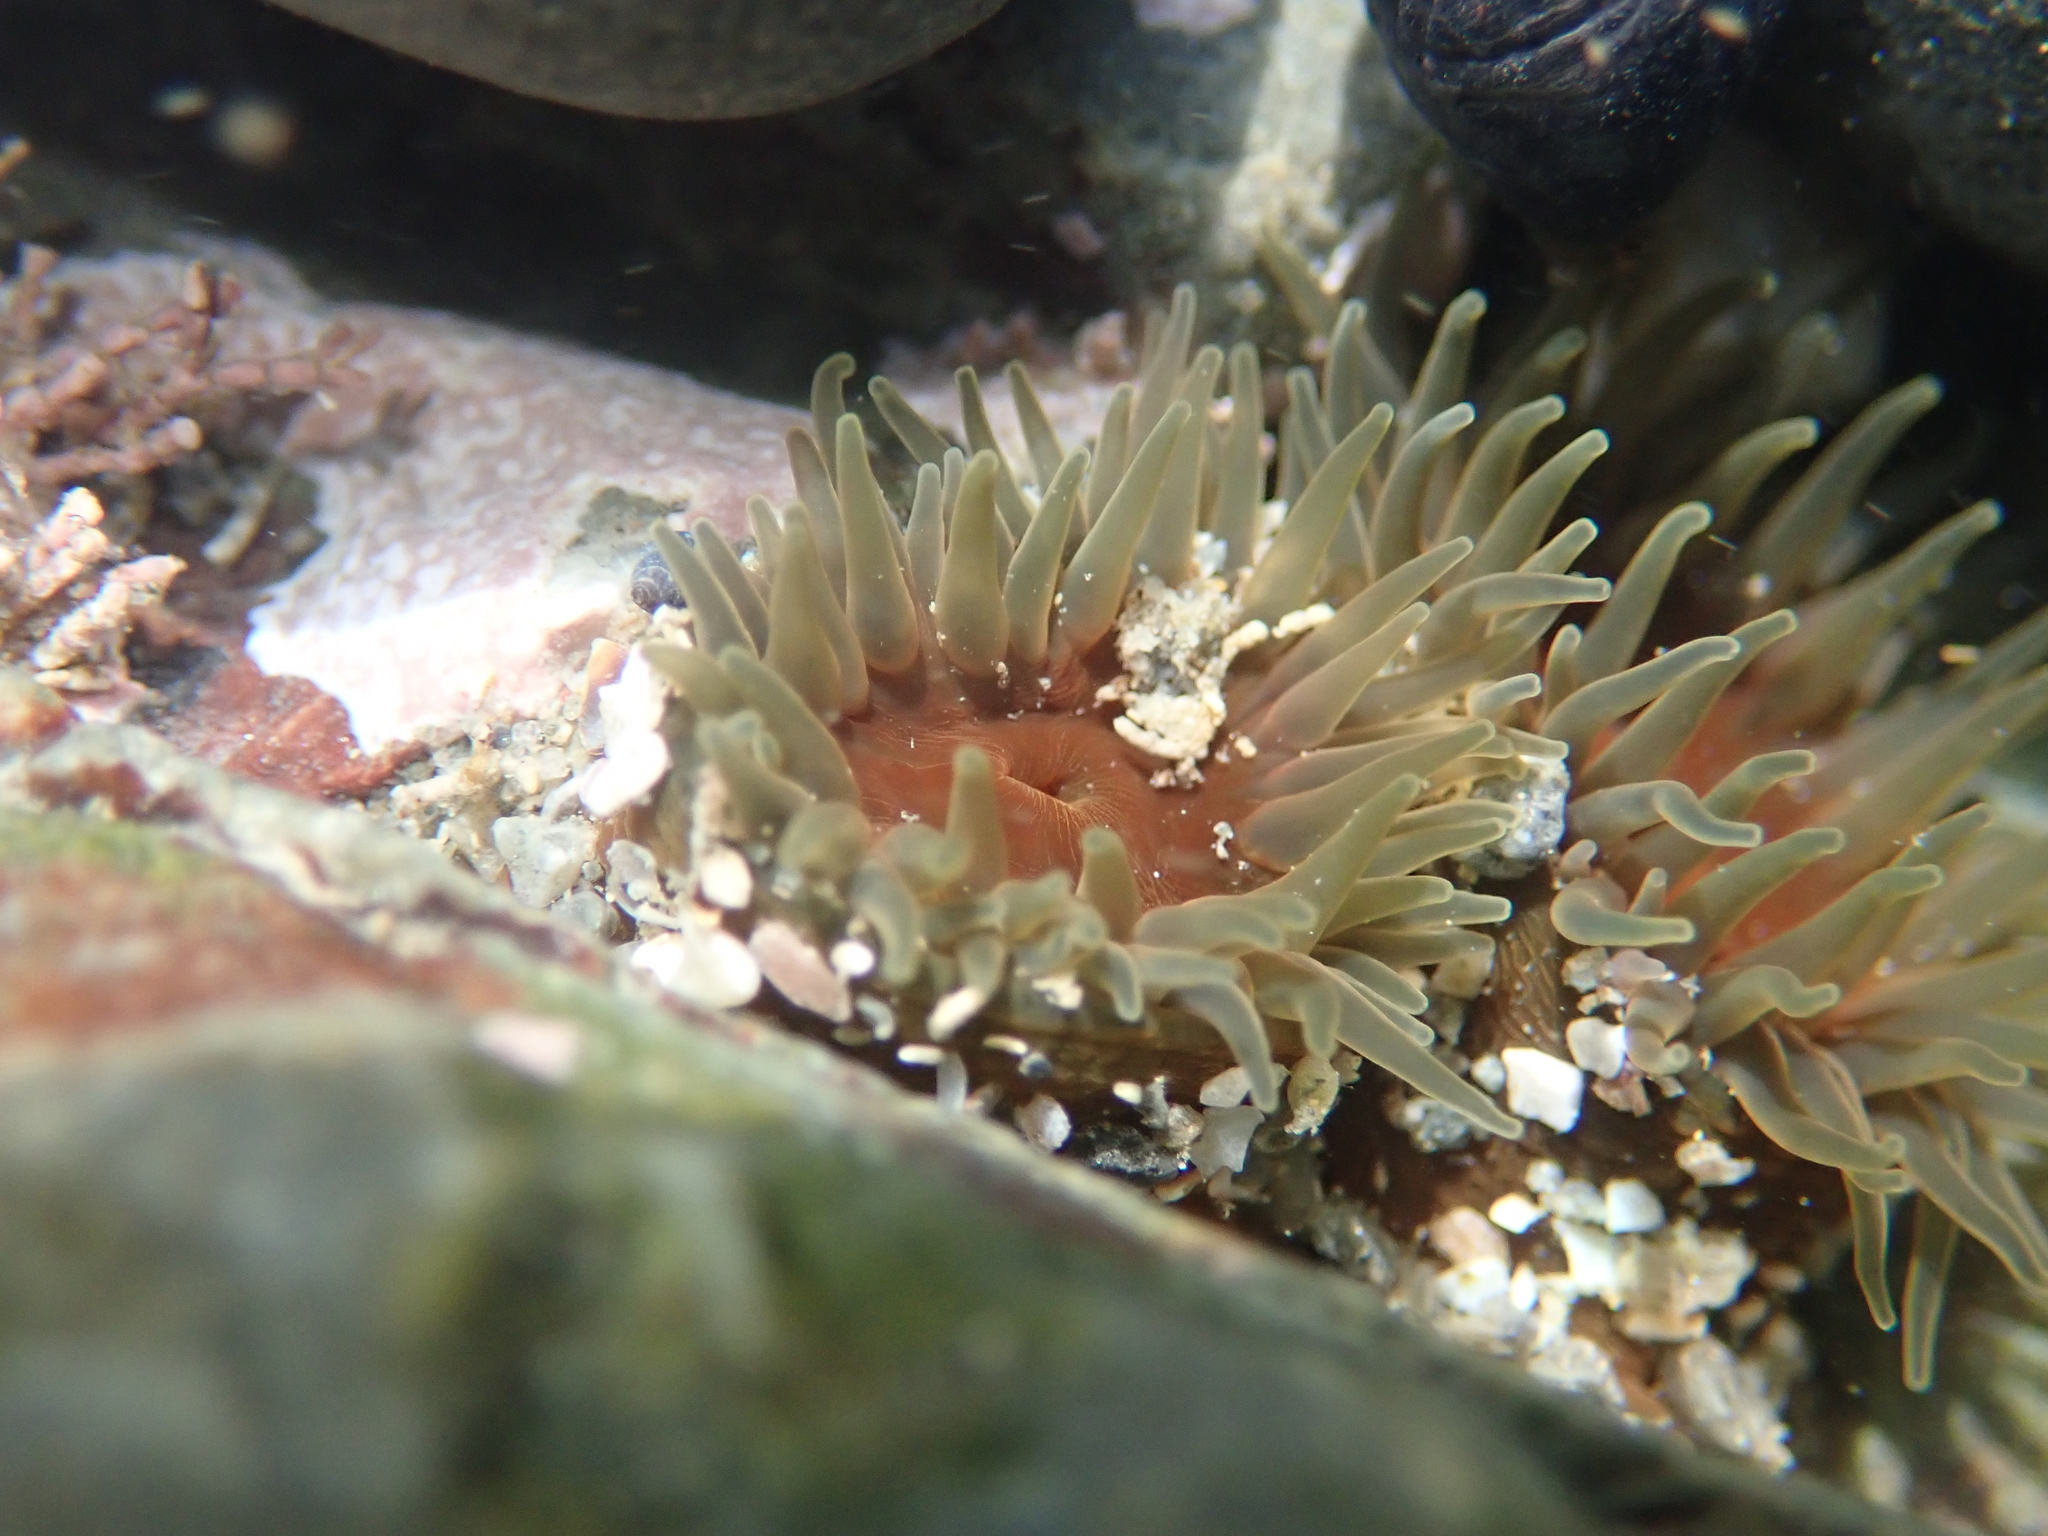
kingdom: Animalia
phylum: Cnidaria
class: Anthozoa
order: Actiniaria
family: Actiniidae
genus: Isactinia
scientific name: Isactinia olivacea
